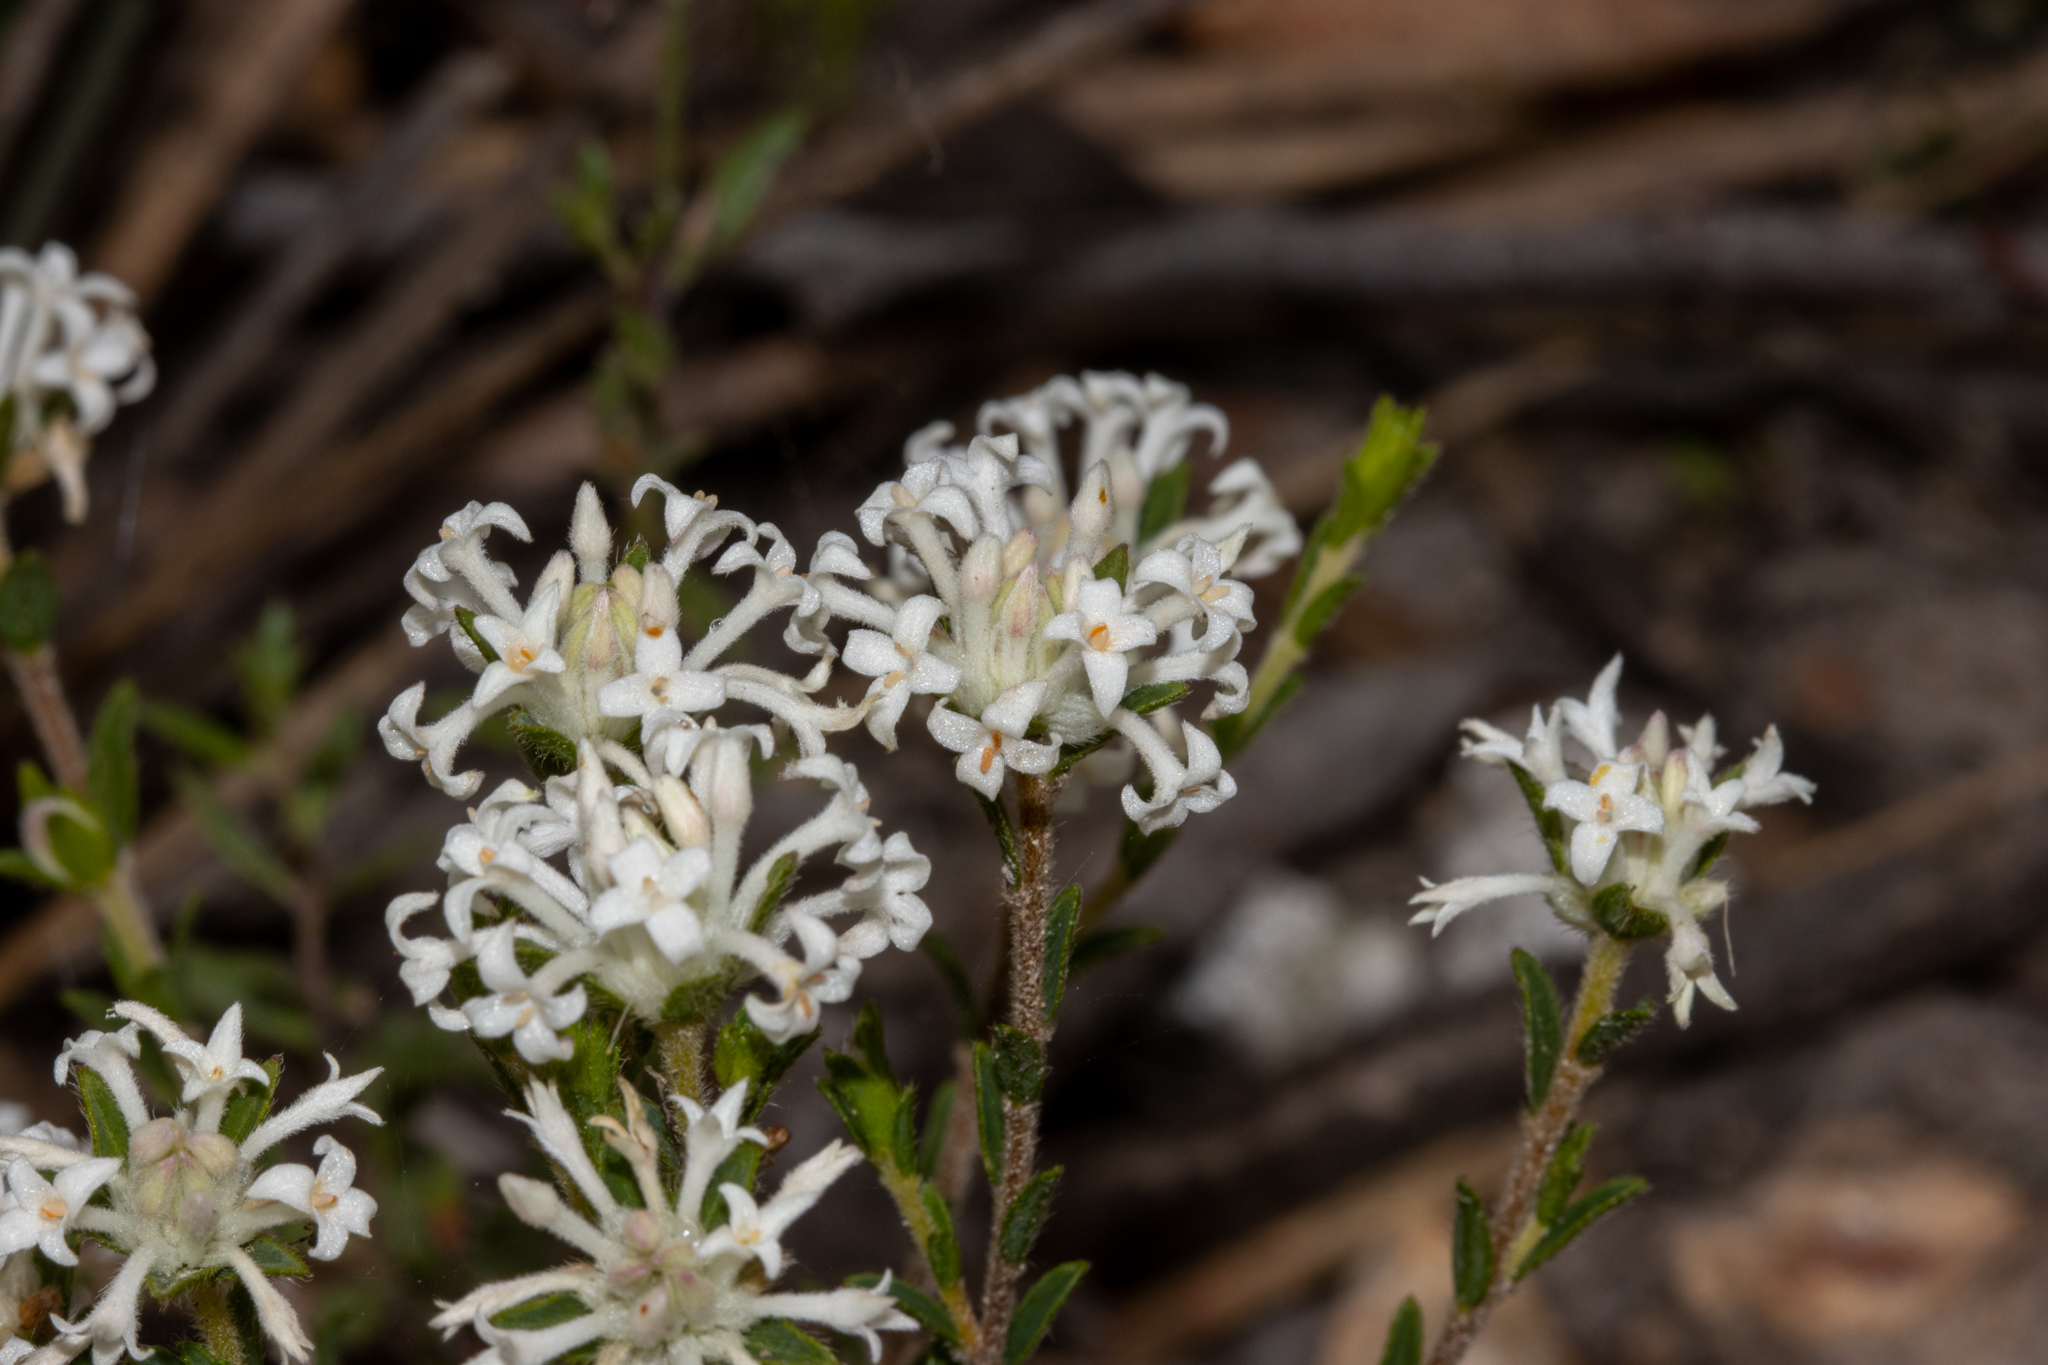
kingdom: Plantae
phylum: Tracheophyta
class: Magnoliopsida
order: Malvales
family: Thymelaeaceae
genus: Pimelea
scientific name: Pimelea phylicoides
